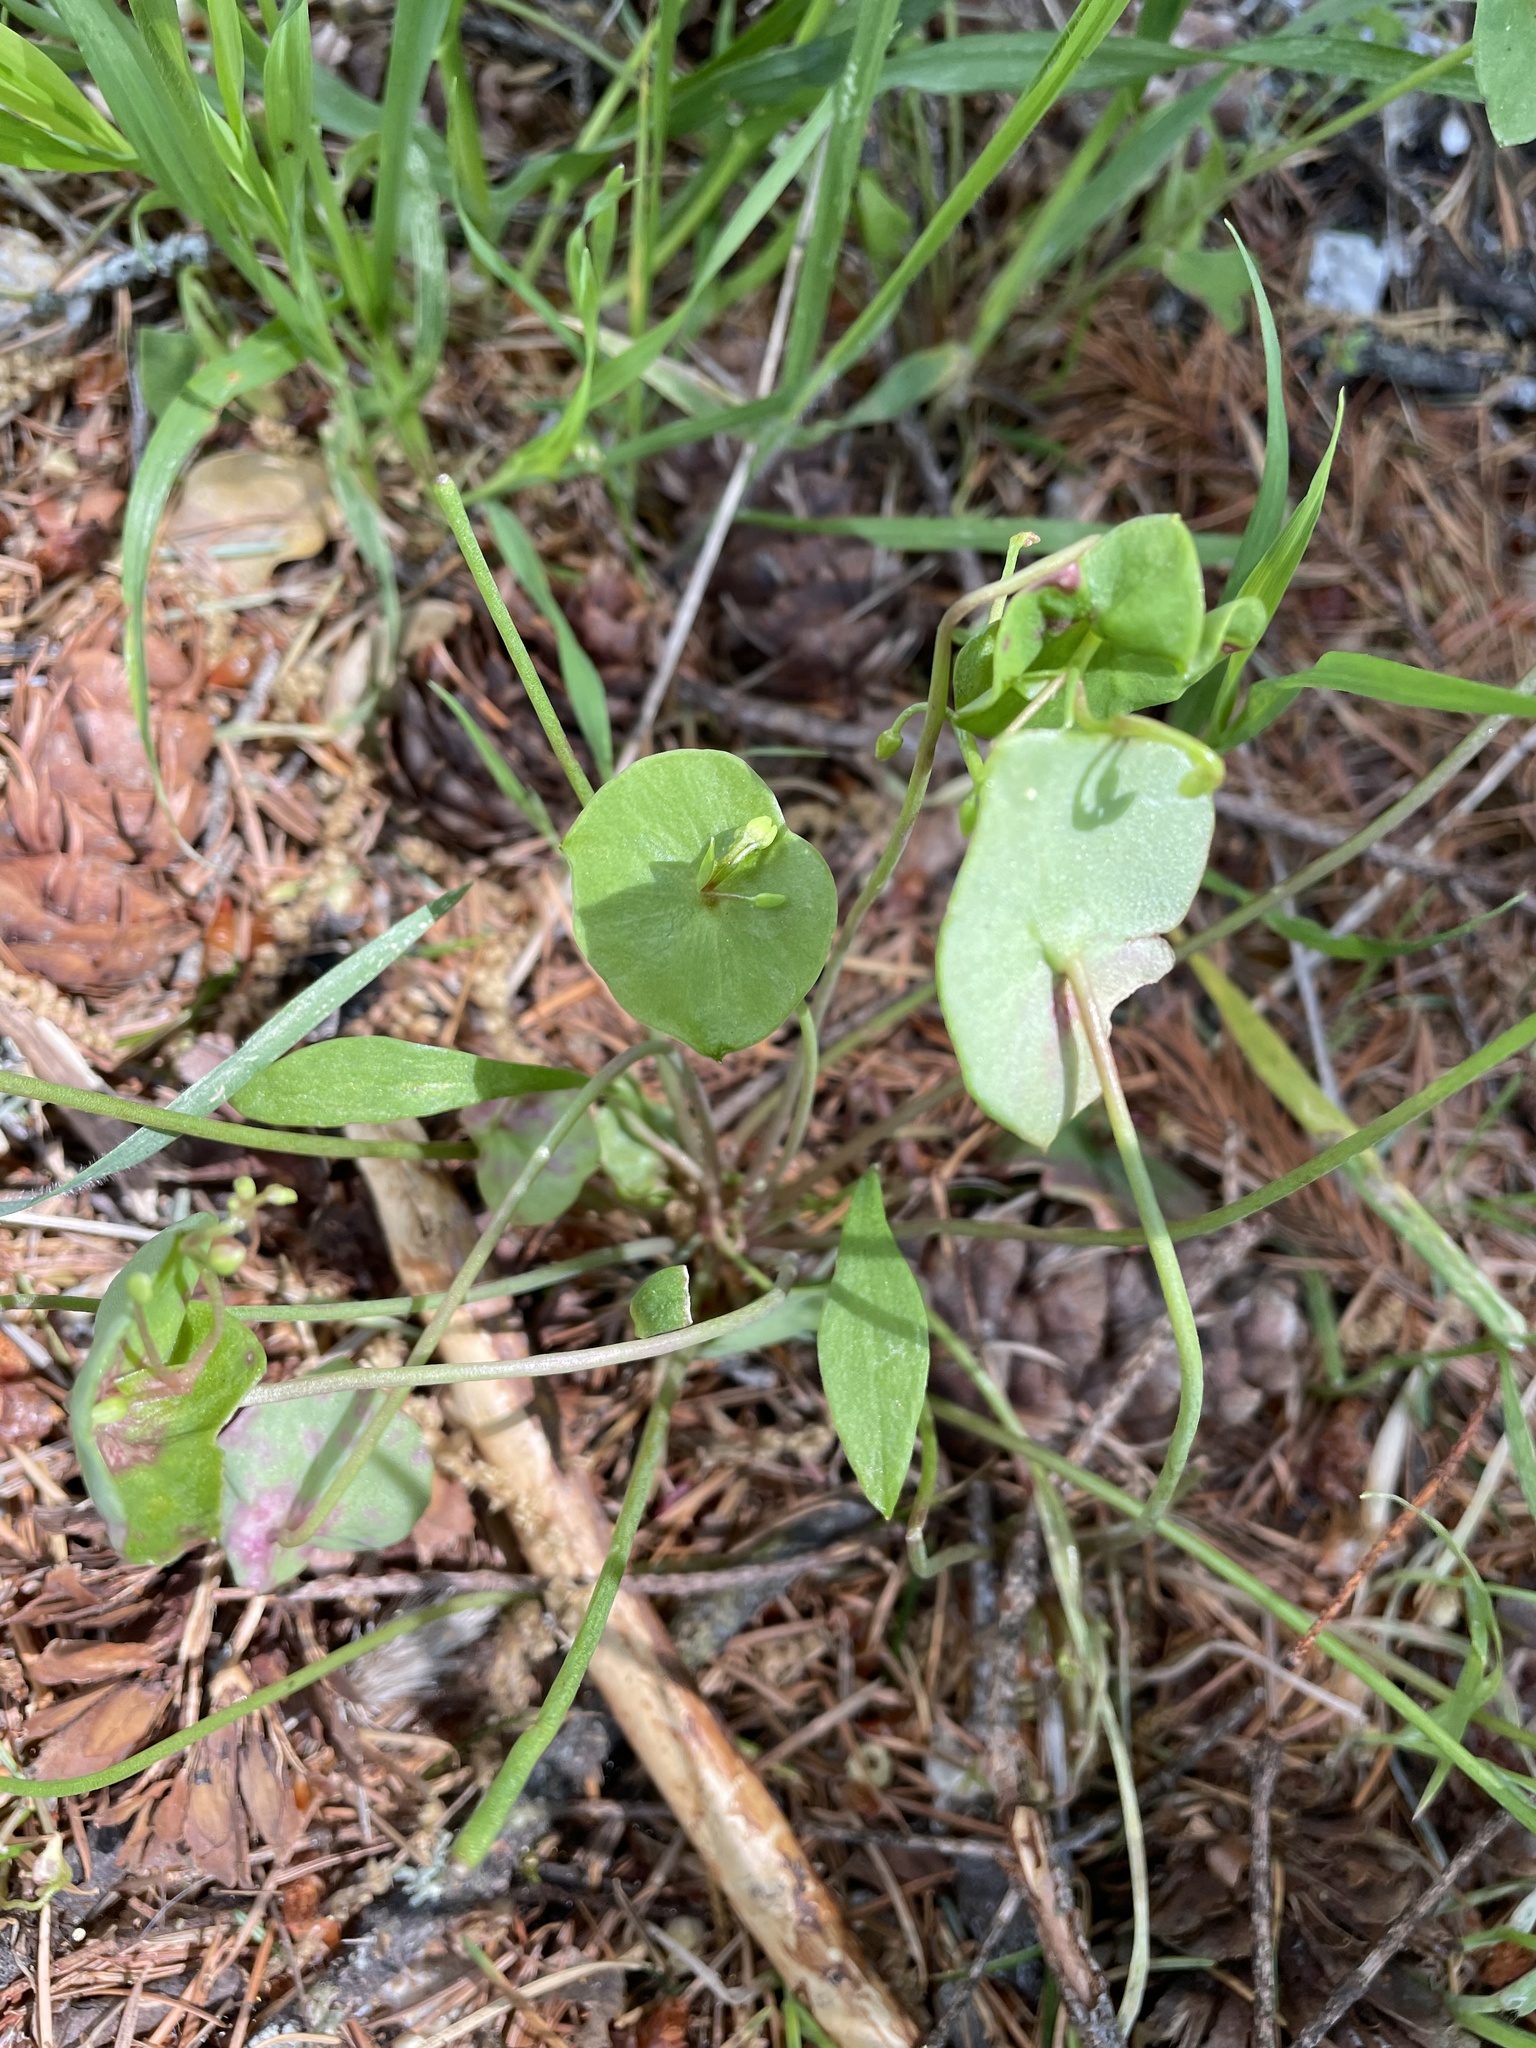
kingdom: Plantae
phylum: Tracheophyta
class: Magnoliopsida
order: Caryophyllales
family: Montiaceae
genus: Claytonia
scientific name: Claytonia perfoliata
